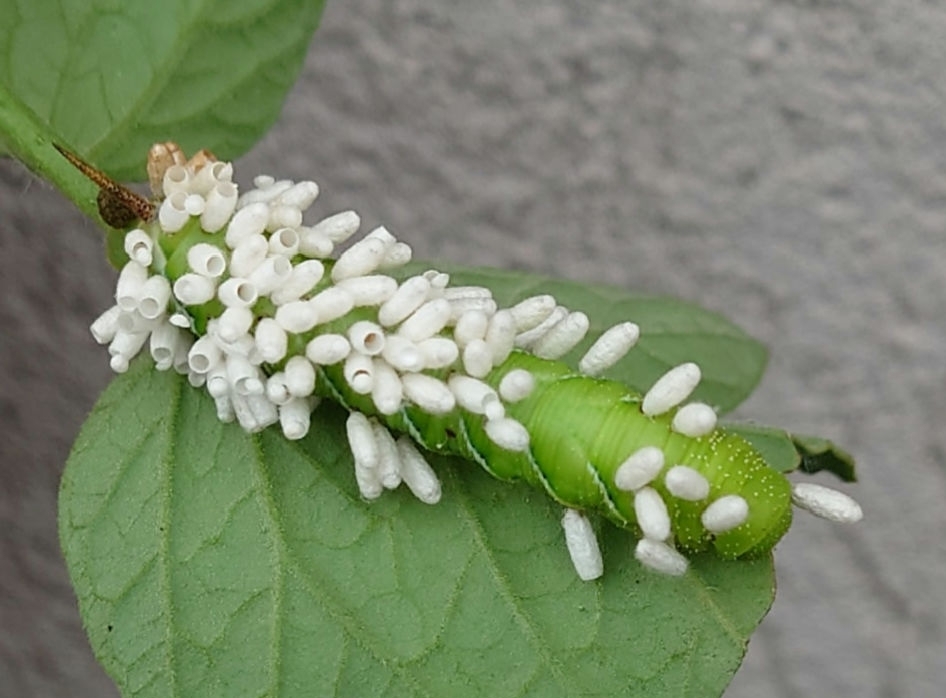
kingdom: Animalia
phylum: Arthropoda
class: Insecta
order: Lepidoptera
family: Sphingidae
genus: Manduca
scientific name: Manduca sexta
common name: Carolina sphinx
